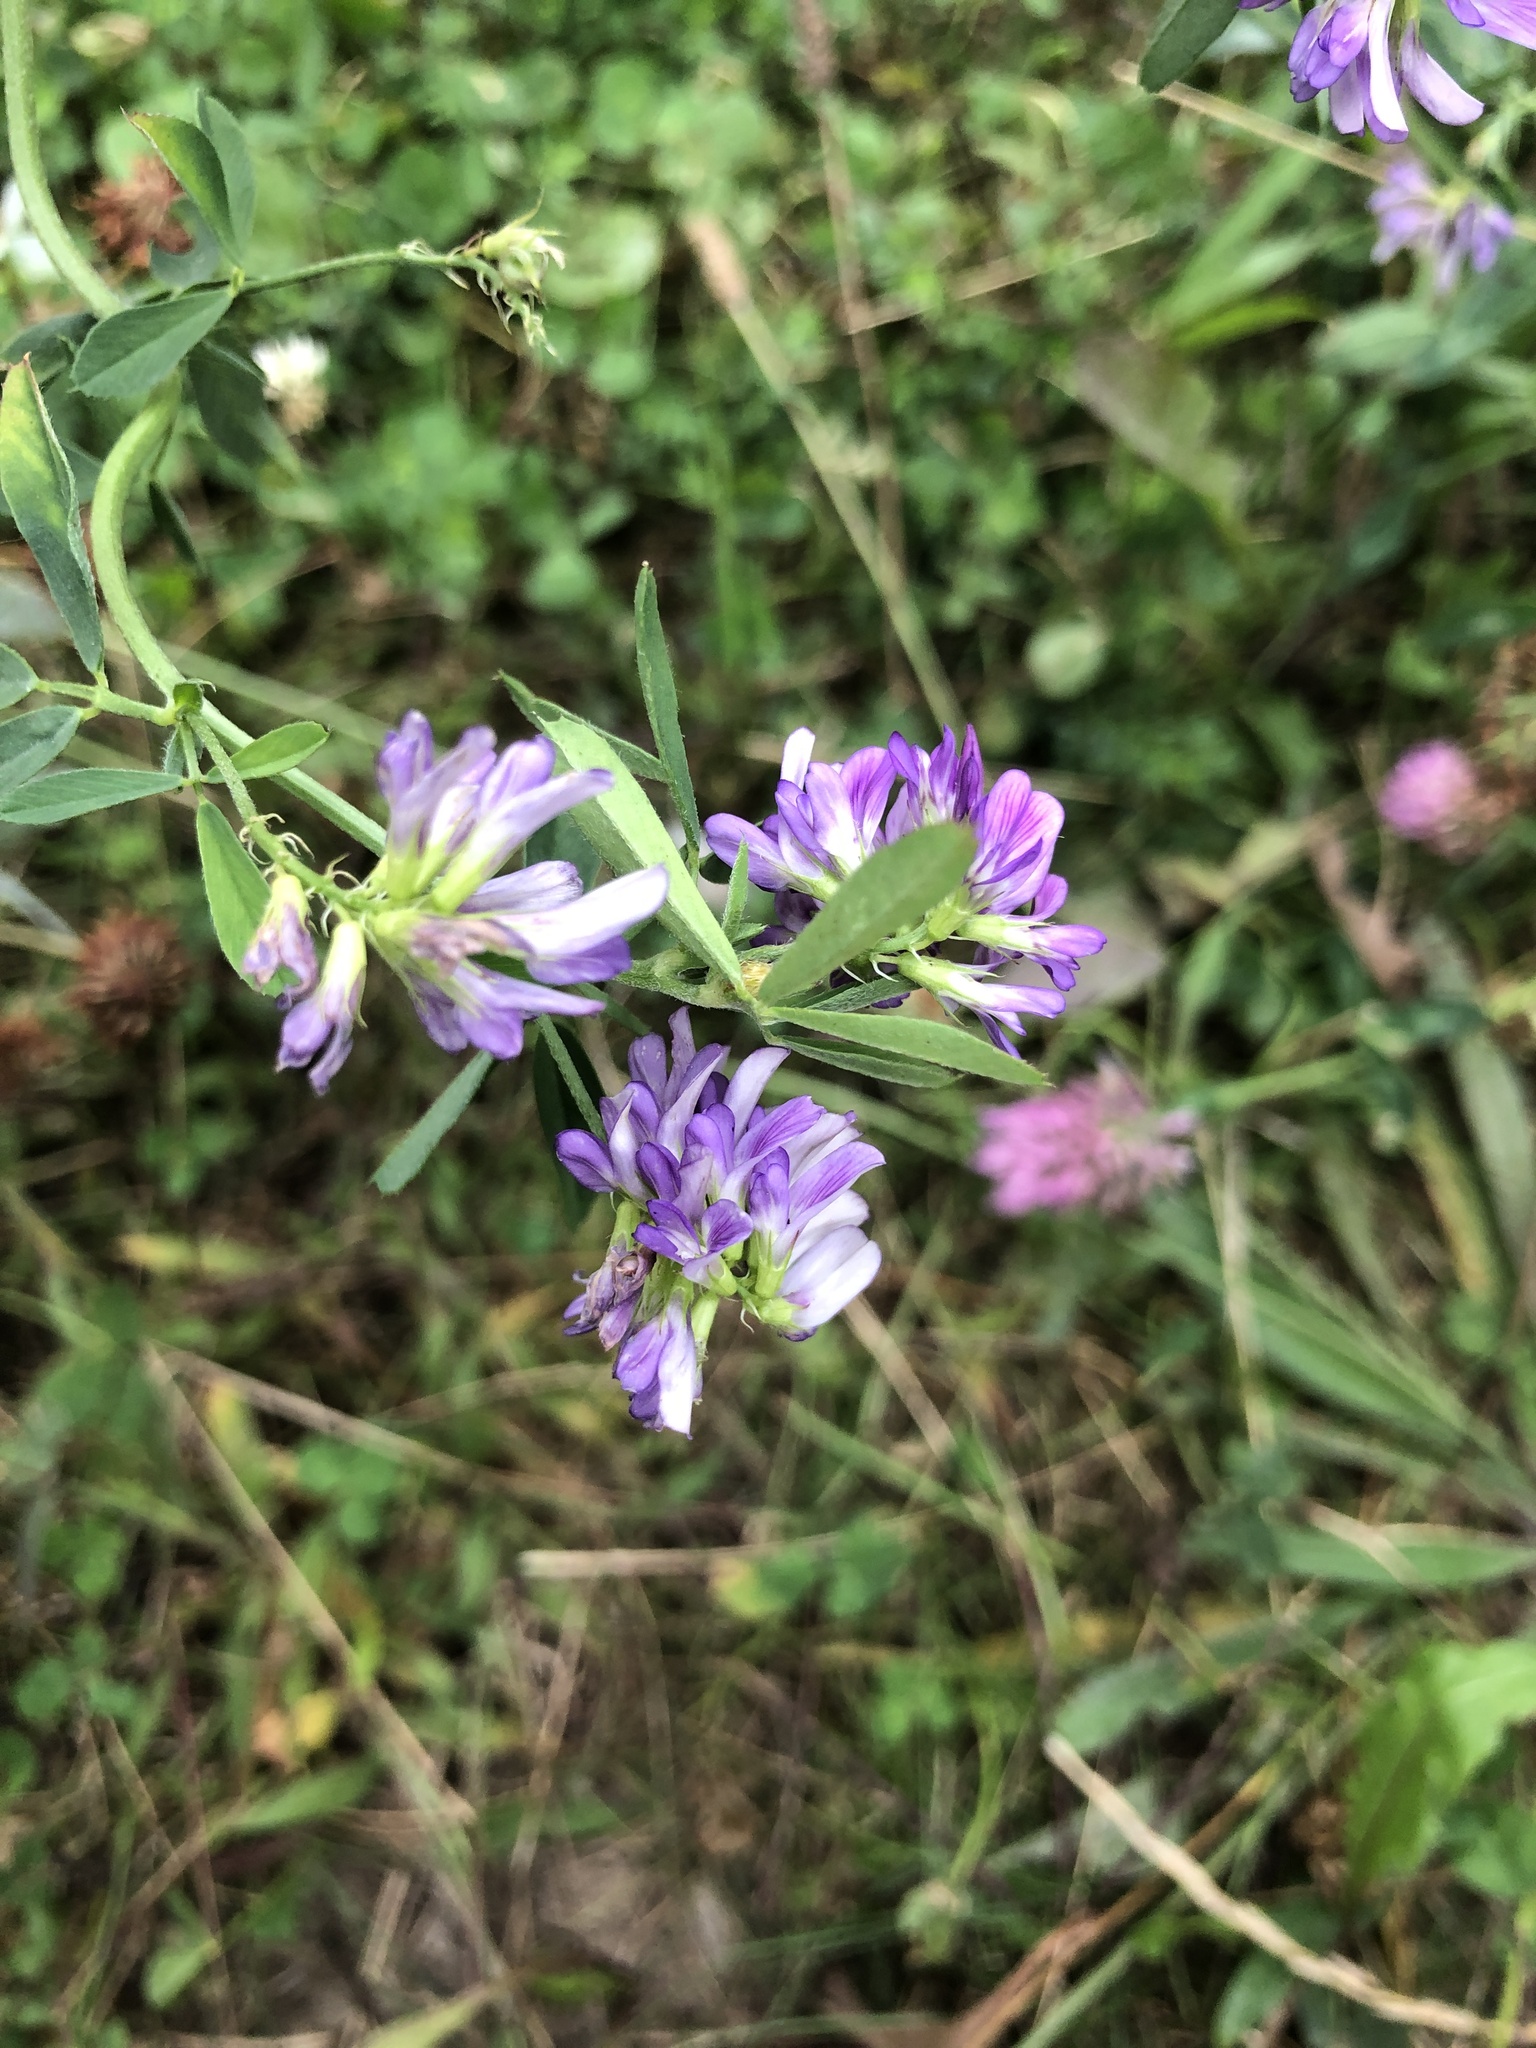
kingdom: Plantae
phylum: Tracheophyta
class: Magnoliopsida
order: Fabales
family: Fabaceae
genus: Medicago
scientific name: Medicago sativa
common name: Alfalfa
